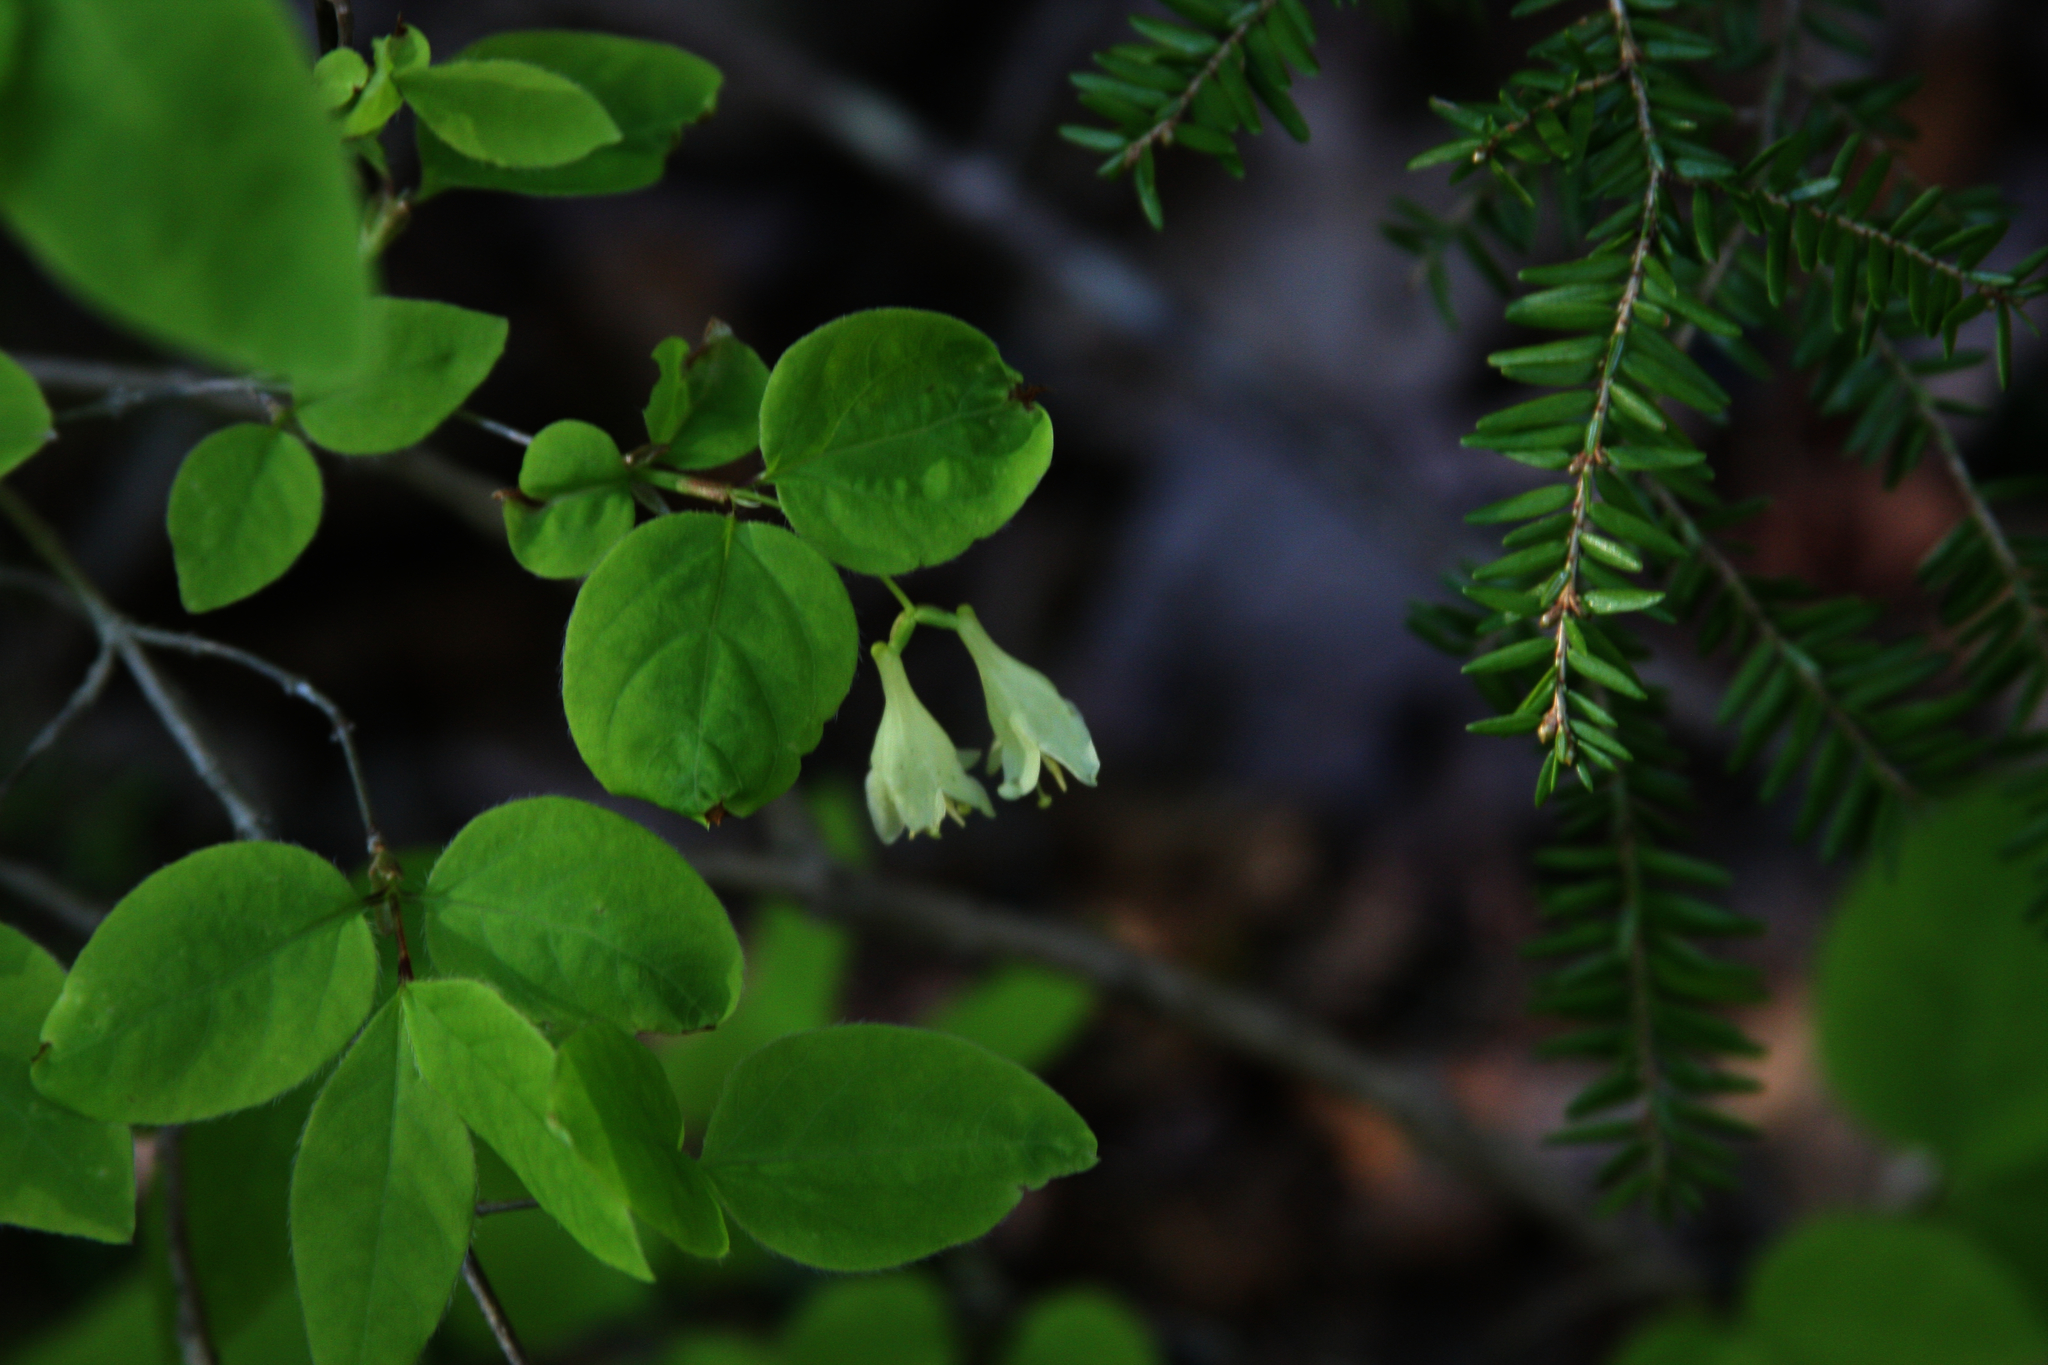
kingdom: Plantae
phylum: Tracheophyta
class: Magnoliopsida
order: Dipsacales
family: Caprifoliaceae
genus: Lonicera
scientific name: Lonicera canadensis
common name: American fly-honeysuckle
